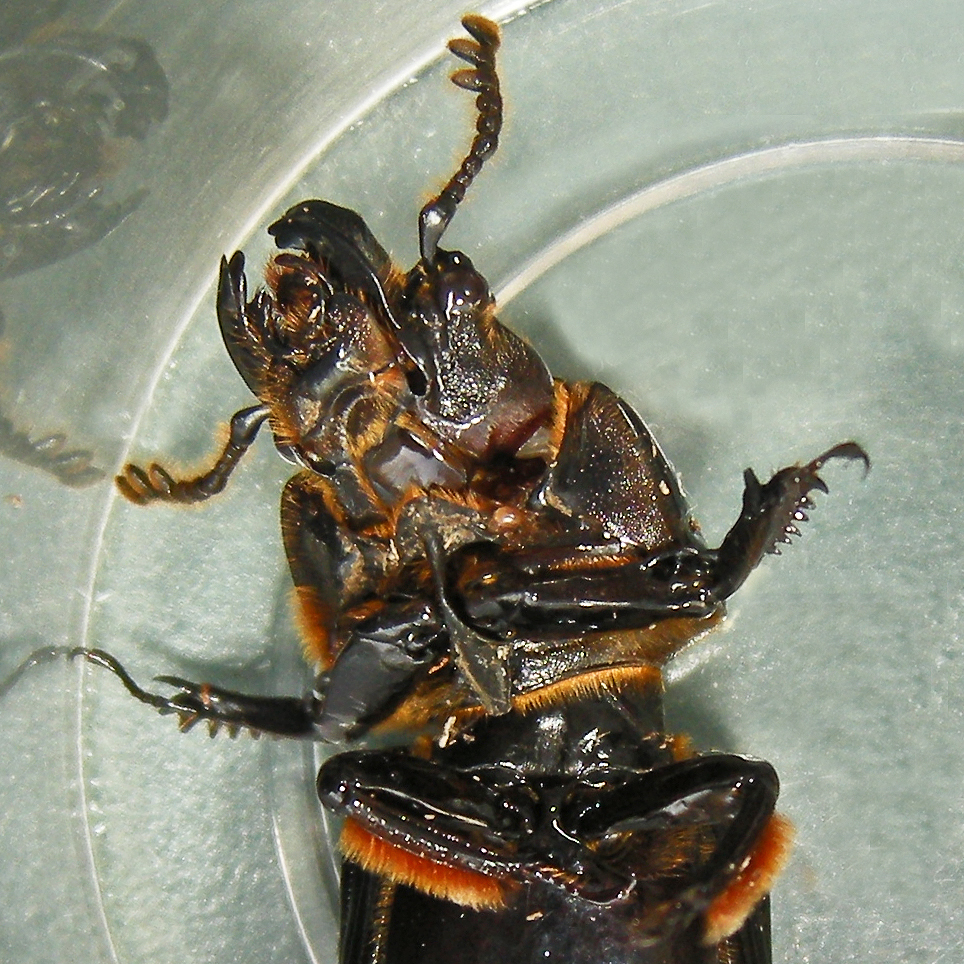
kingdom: Animalia
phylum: Arthropoda
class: Insecta
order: Coleoptera
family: Passalidae
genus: Odontotaenius
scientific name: Odontotaenius disjunctus
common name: Patent leather beetle
